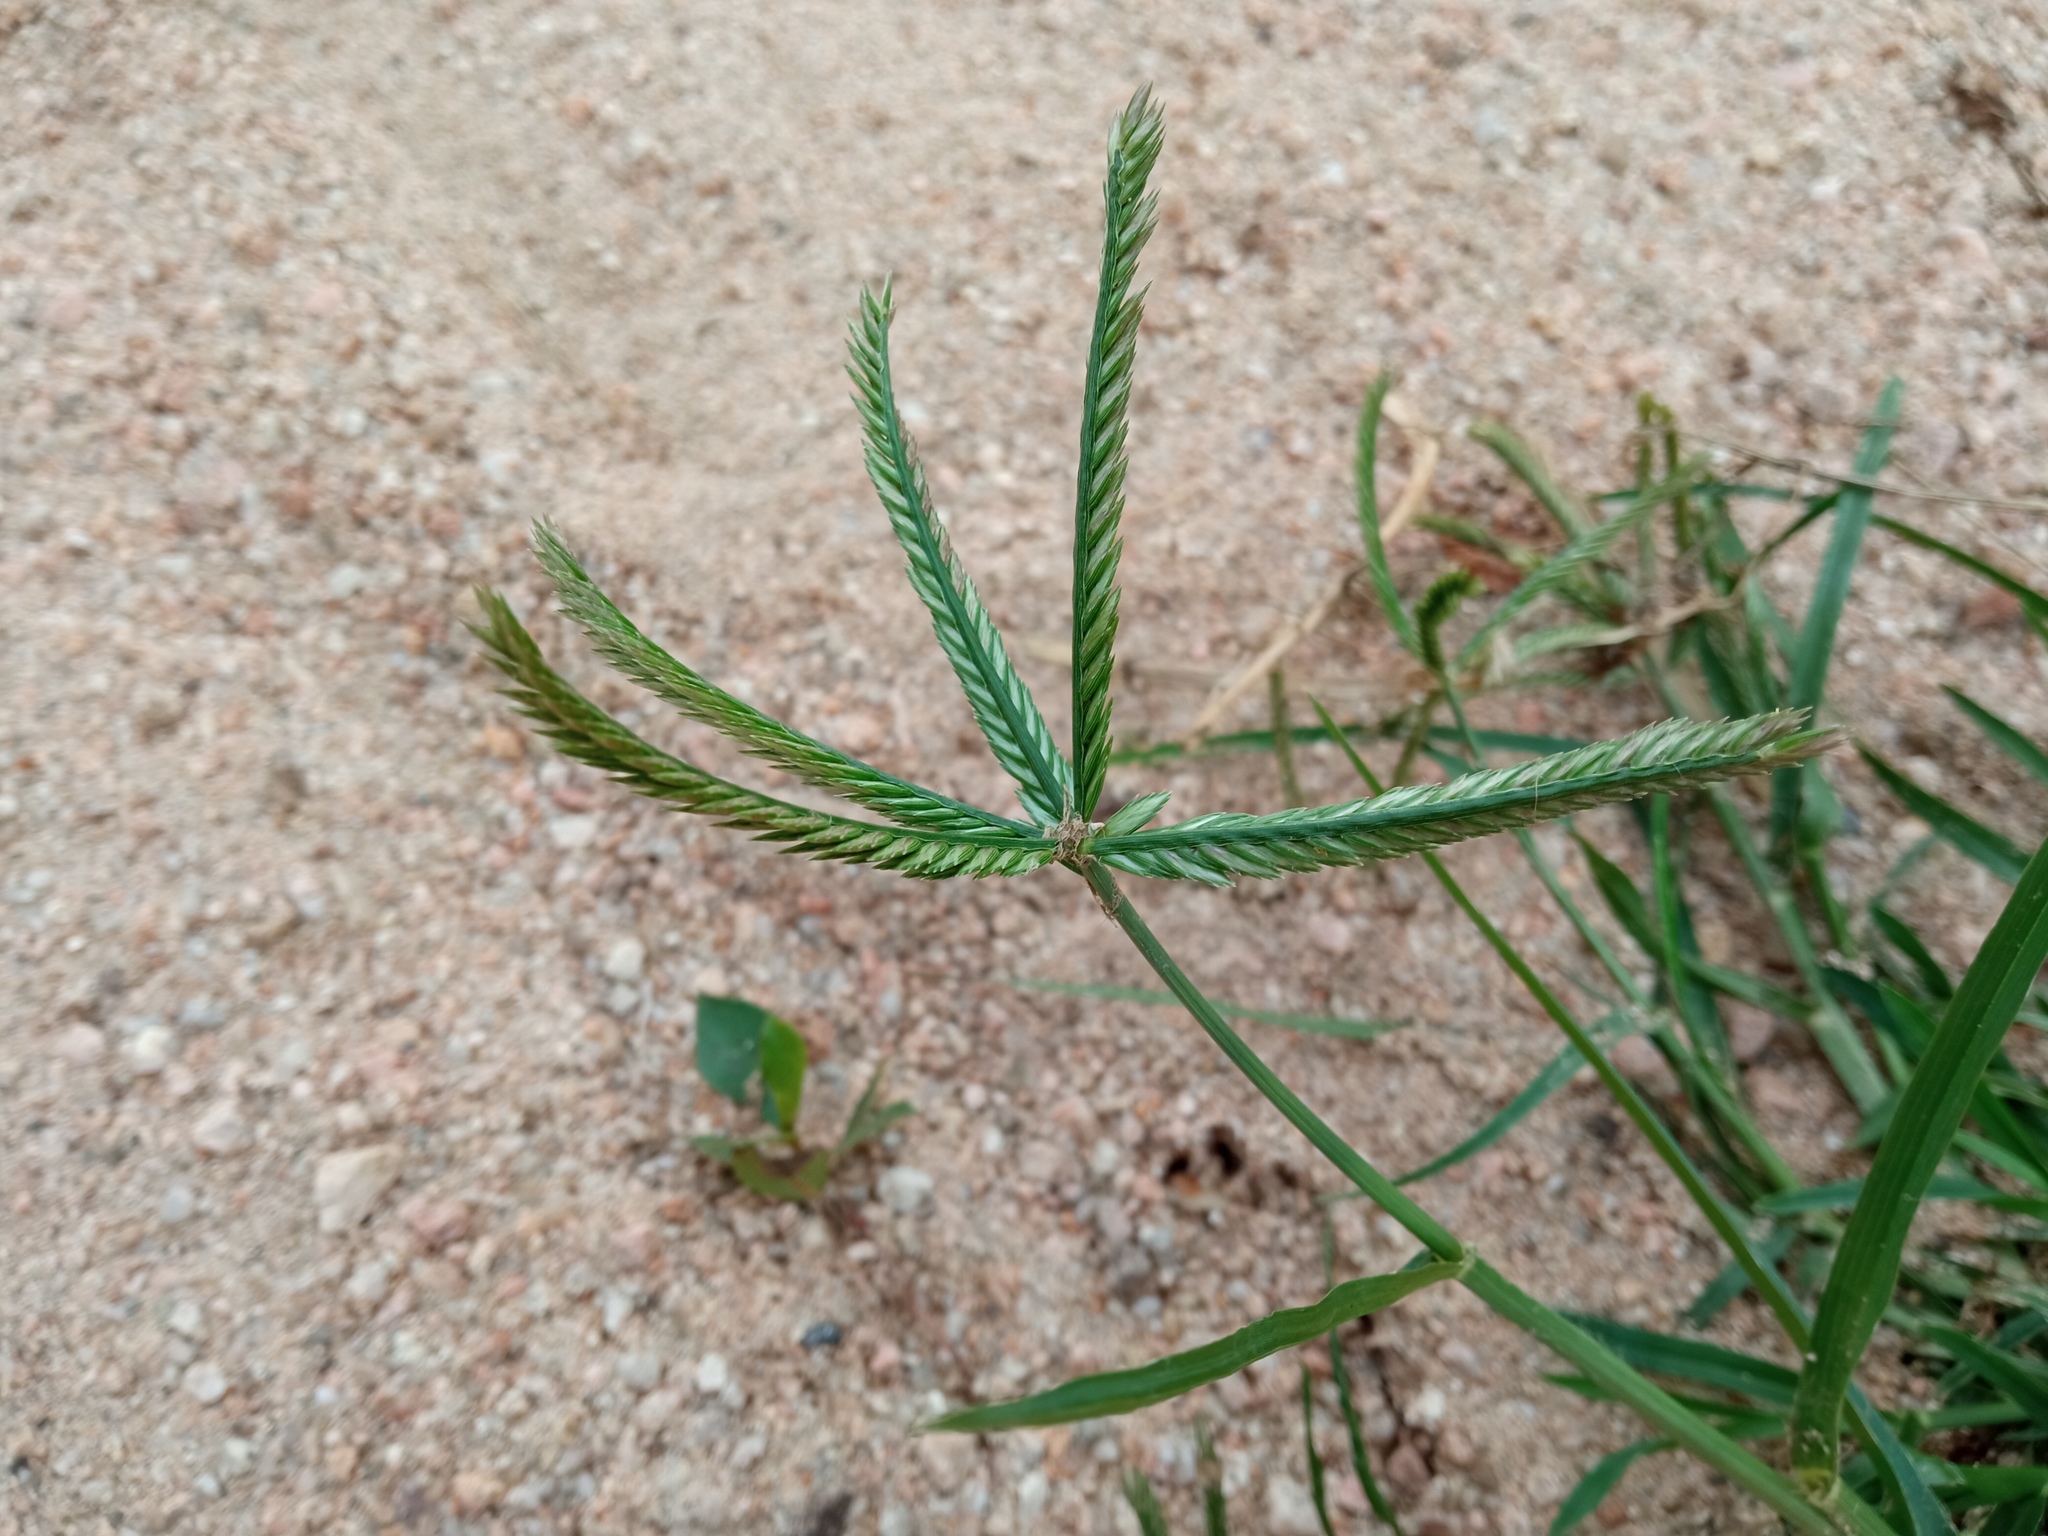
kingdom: Plantae
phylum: Tracheophyta
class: Liliopsida
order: Poales
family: Poaceae
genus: Eleusine
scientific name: Eleusine indica
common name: Yard-grass
